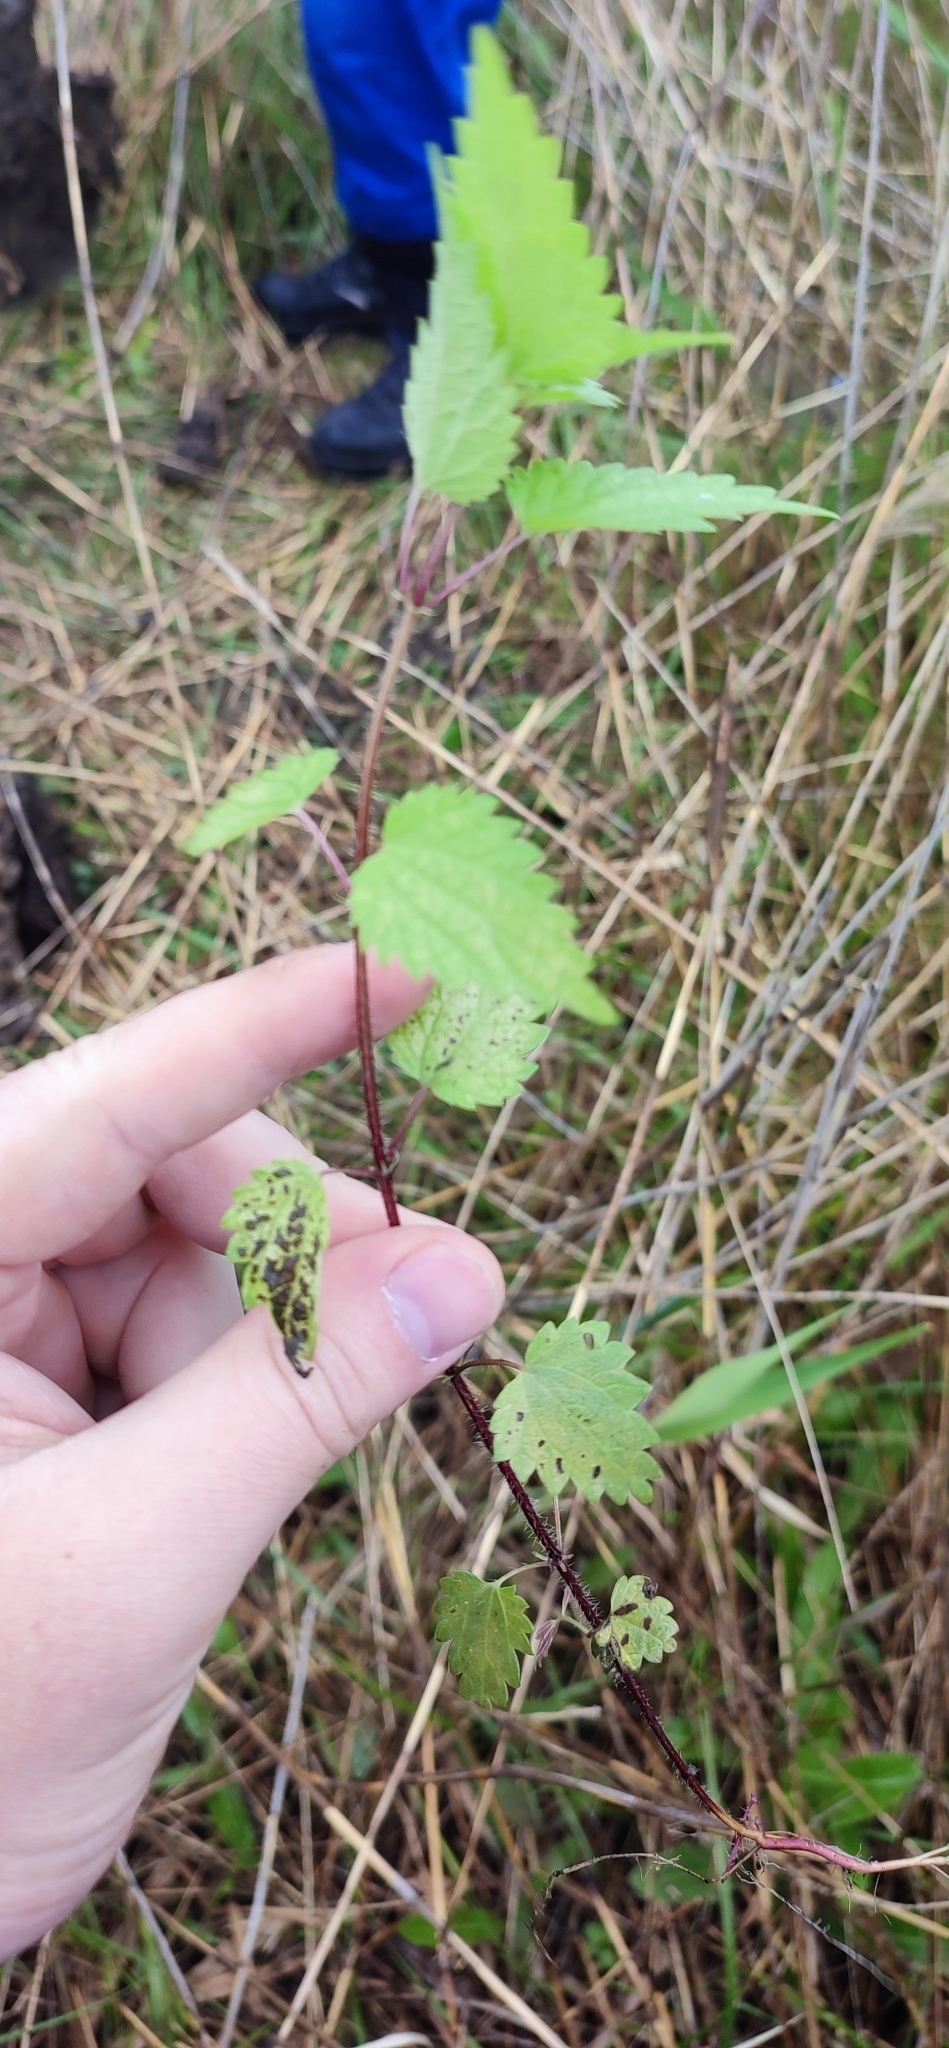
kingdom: Plantae
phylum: Tracheophyta
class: Magnoliopsida
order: Rosales
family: Urticaceae
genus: Urtica
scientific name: Urtica dioica
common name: Common nettle
